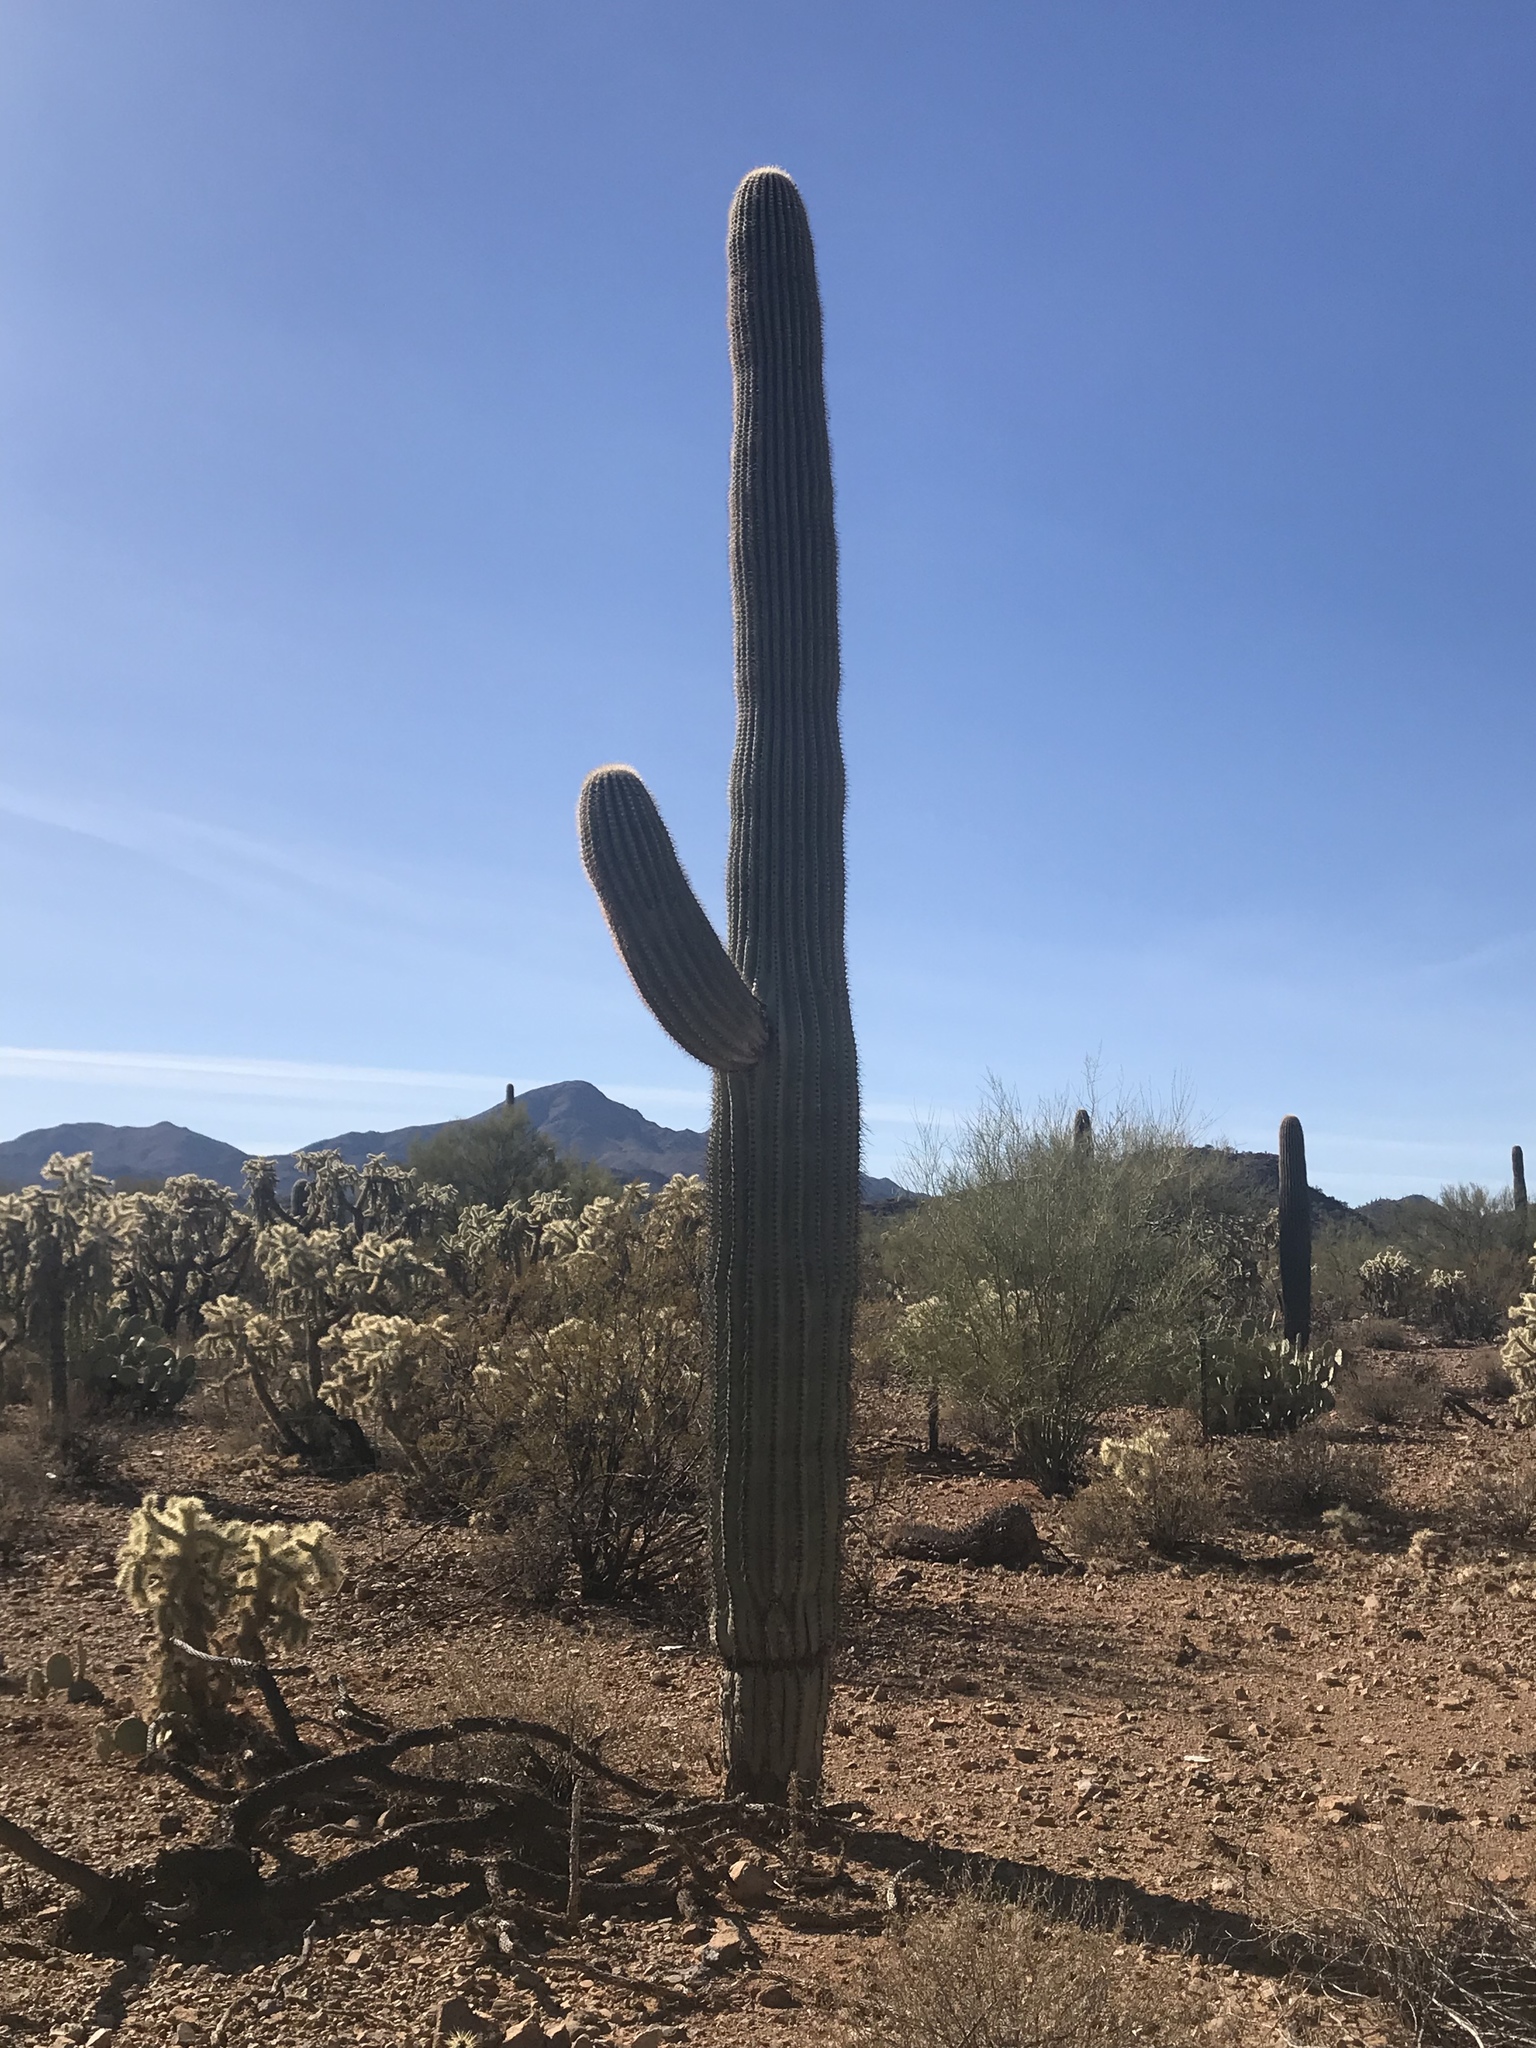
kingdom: Plantae
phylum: Tracheophyta
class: Magnoliopsida
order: Caryophyllales
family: Cactaceae
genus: Carnegiea
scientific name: Carnegiea gigantea
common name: Saguaro
